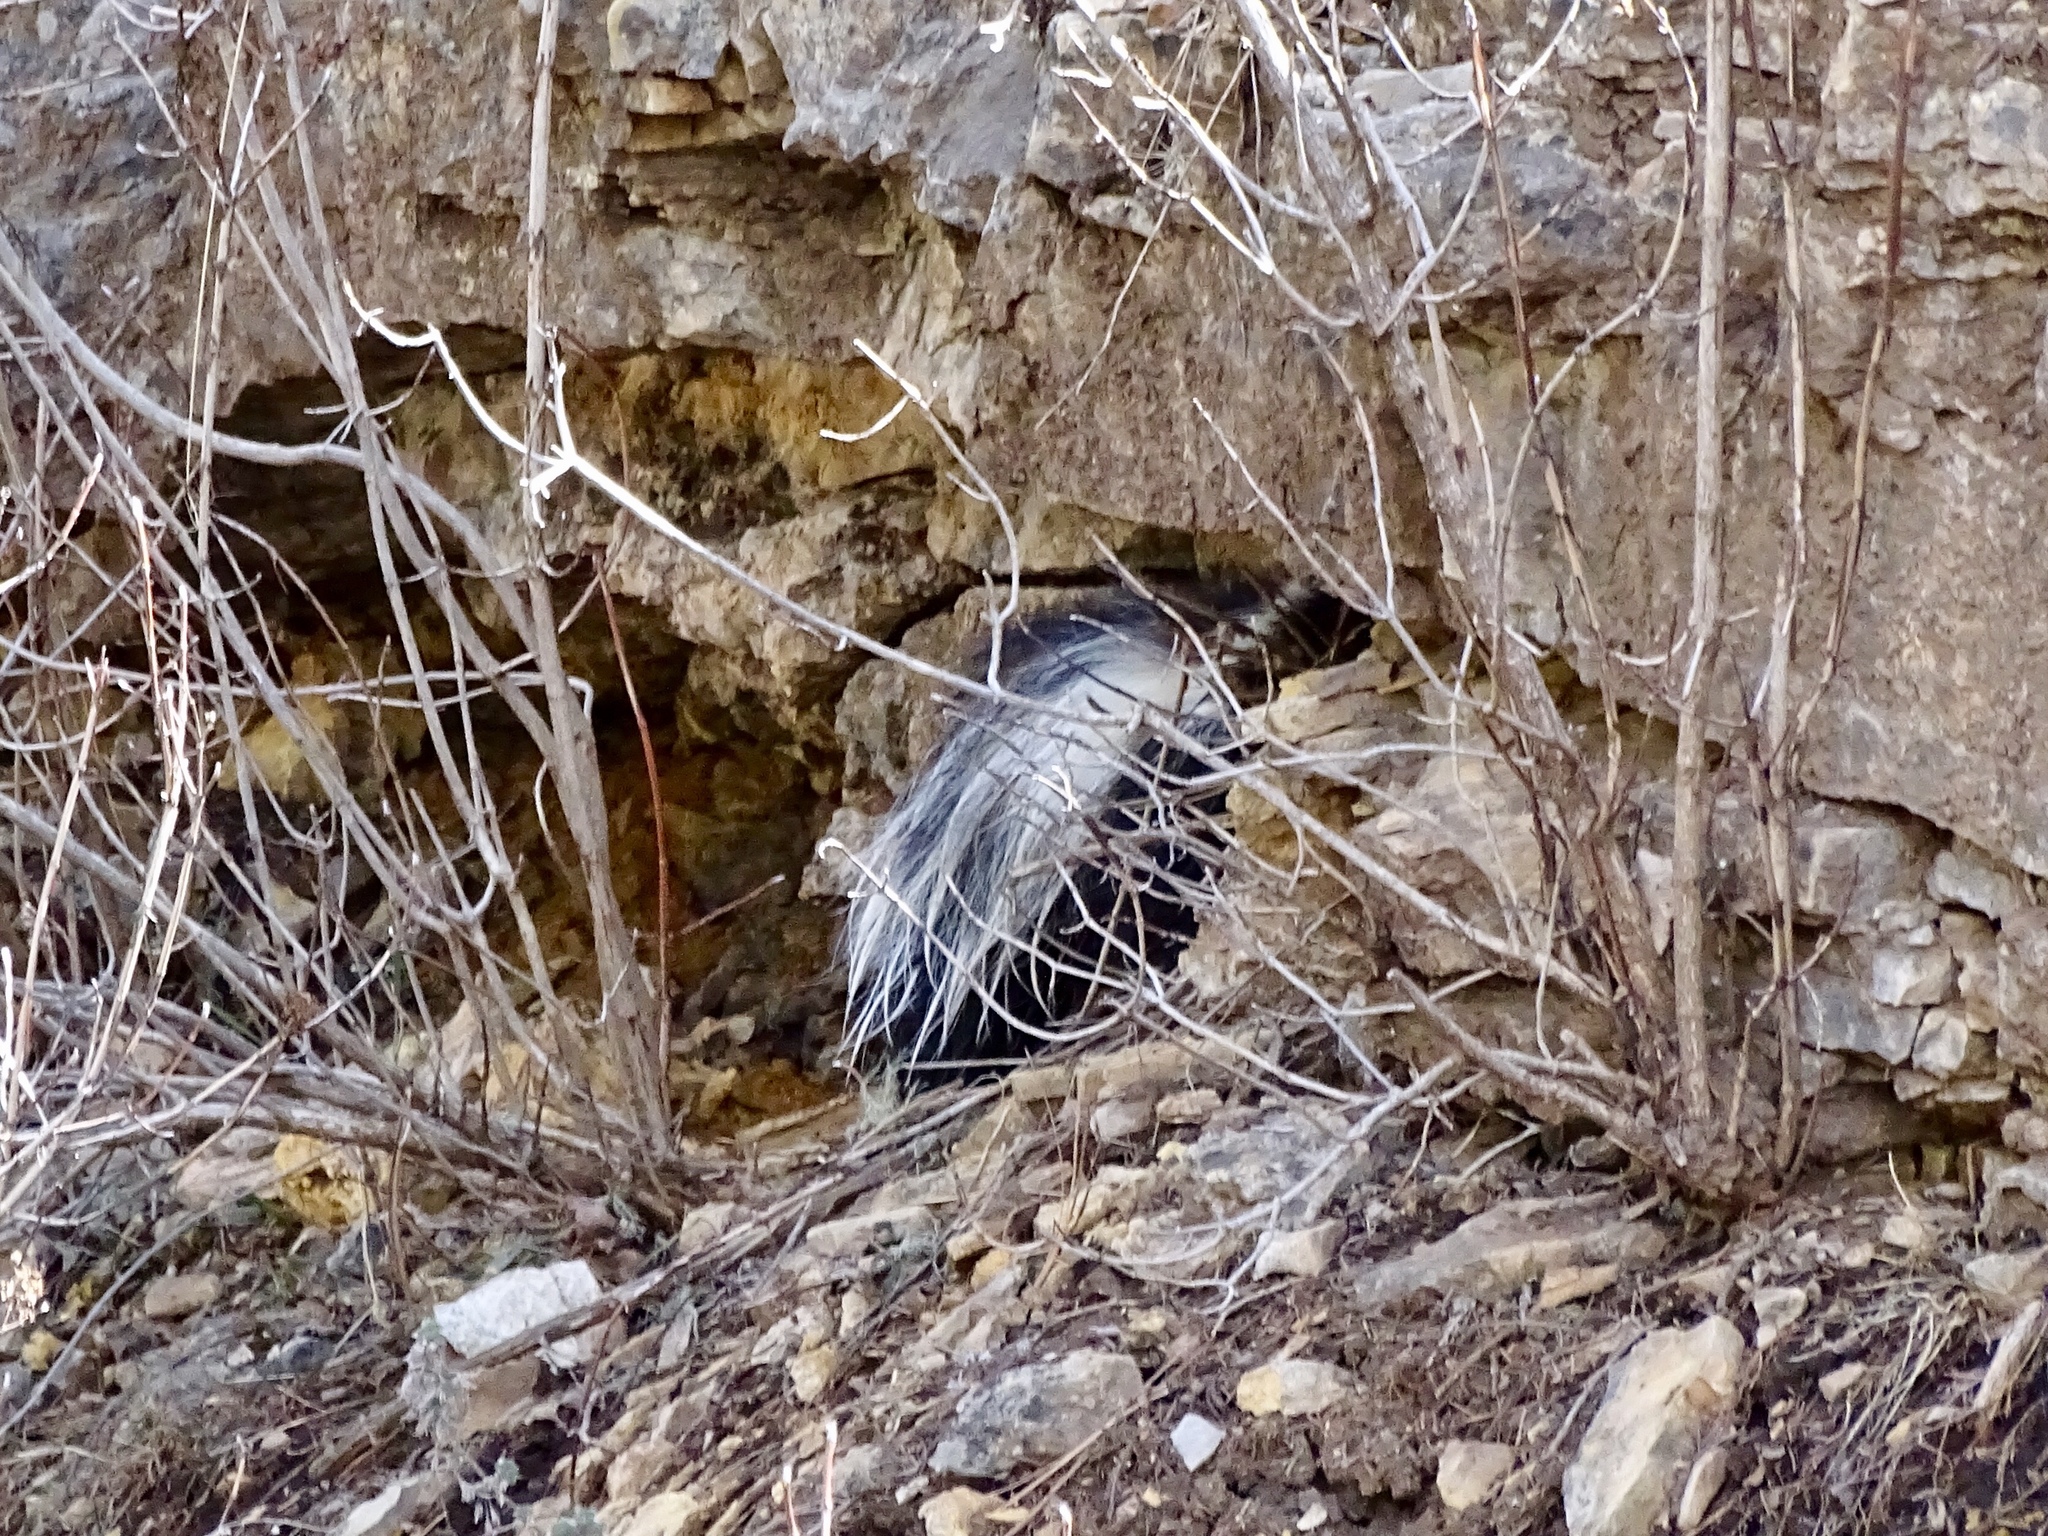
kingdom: Animalia
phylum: Chordata
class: Mammalia
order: Carnivora
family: Mephitidae
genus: Mephitis
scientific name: Mephitis mephitis
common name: Striped skunk
